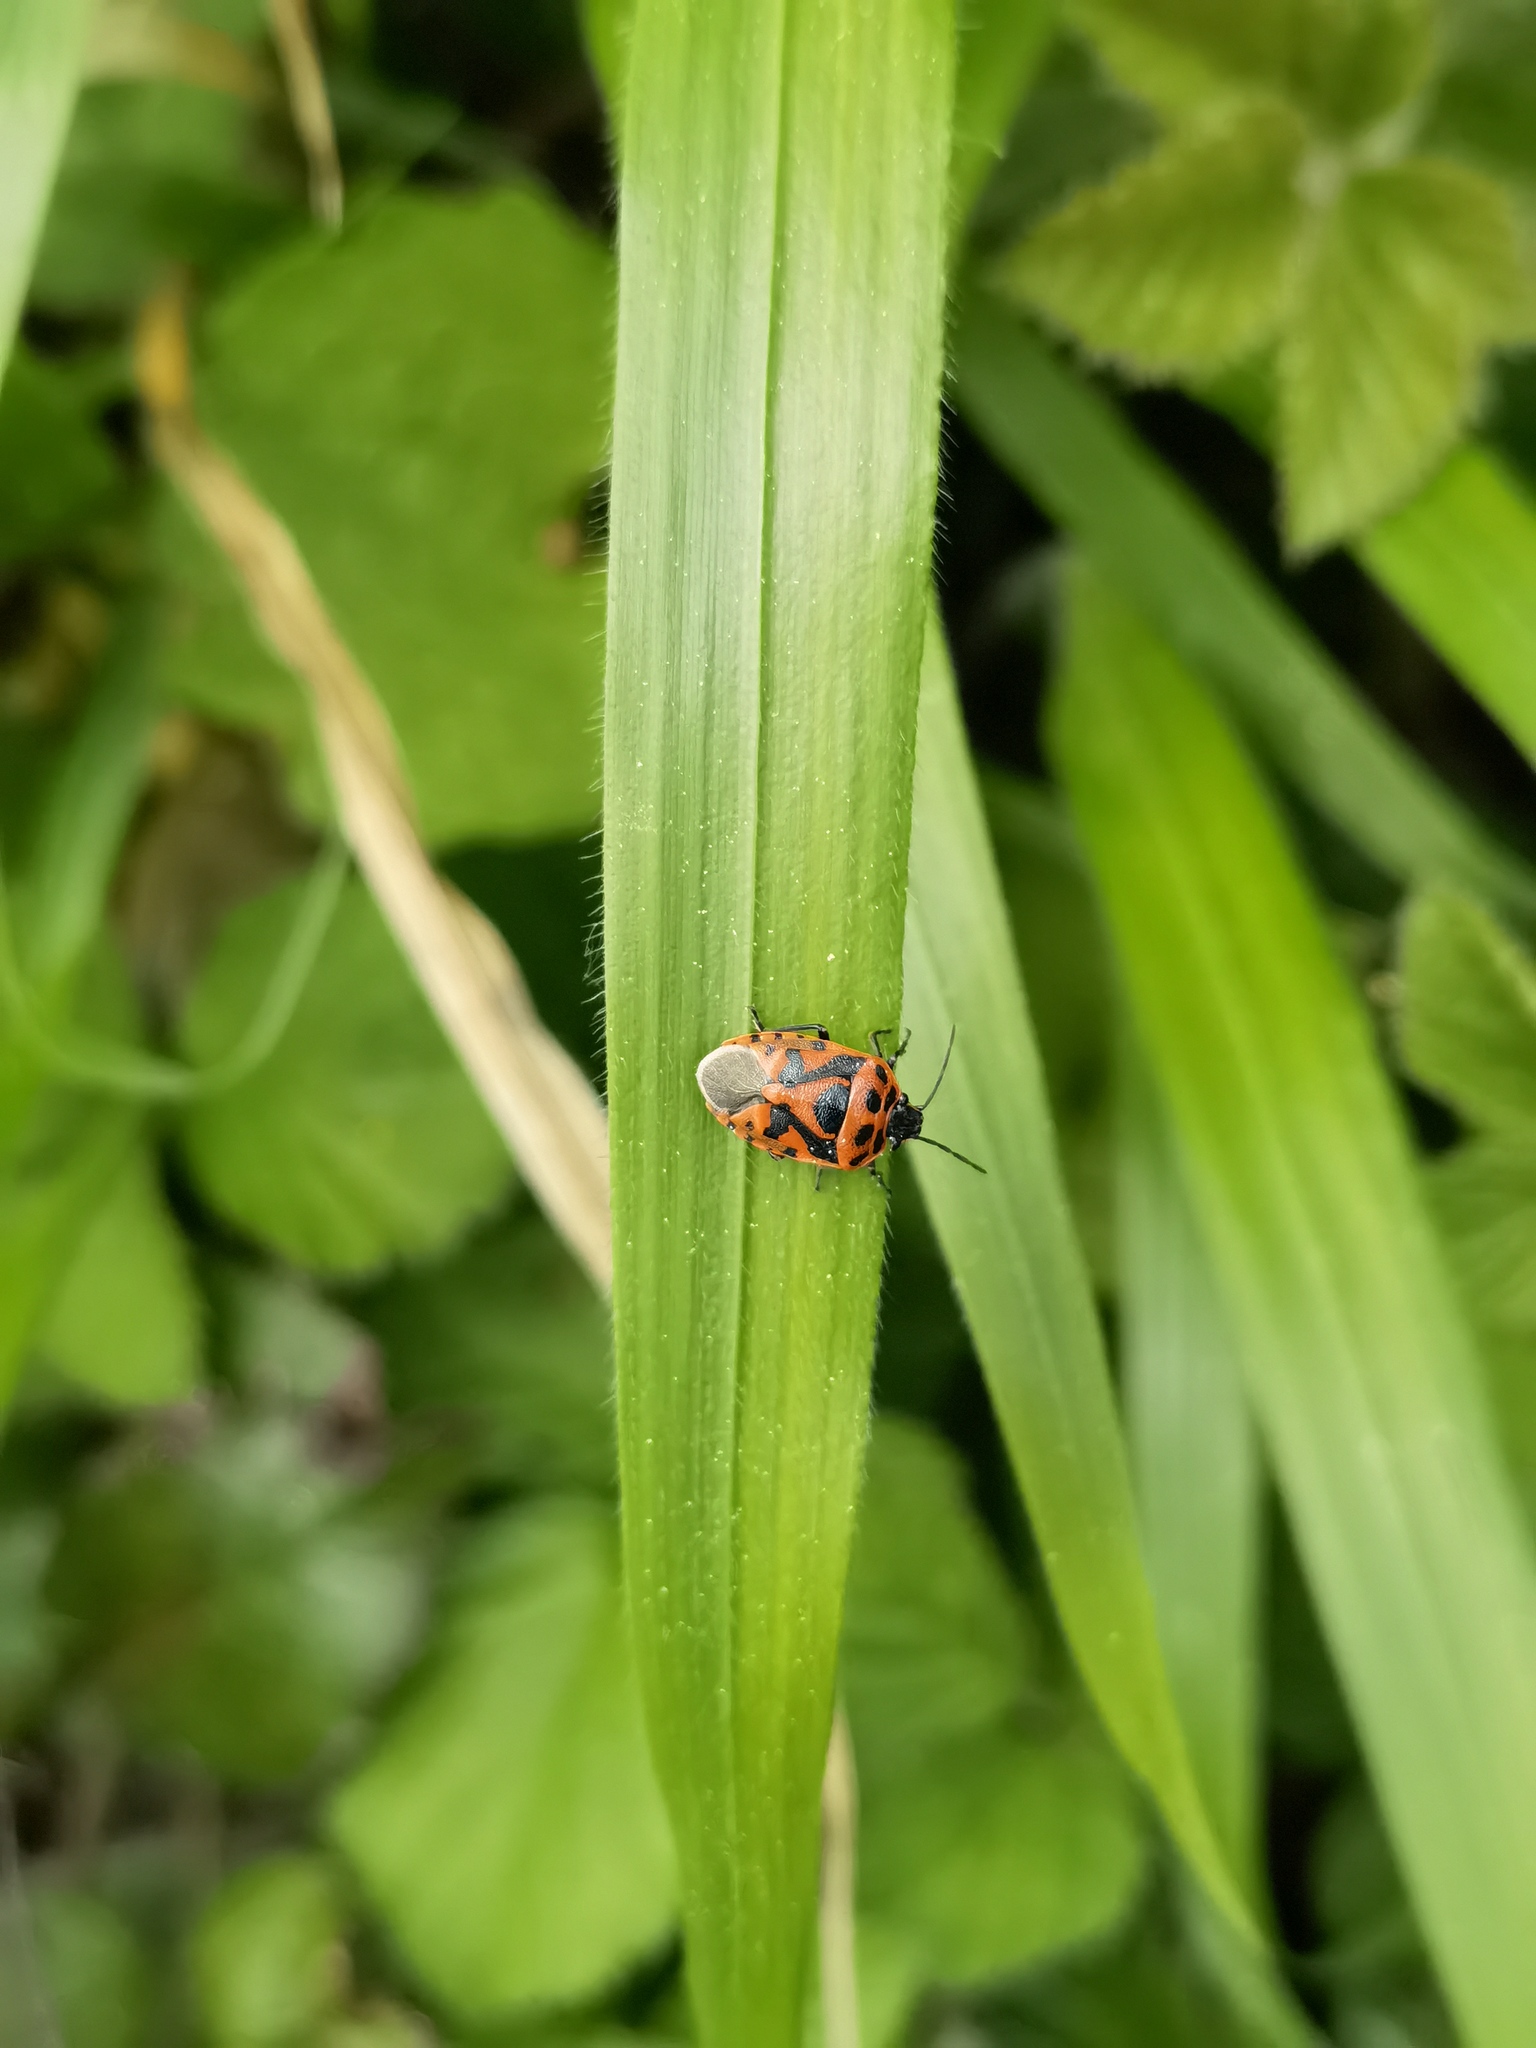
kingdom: Animalia
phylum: Arthropoda
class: Insecta
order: Hemiptera
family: Pentatomidae
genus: Eurydema
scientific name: Eurydema ornata
